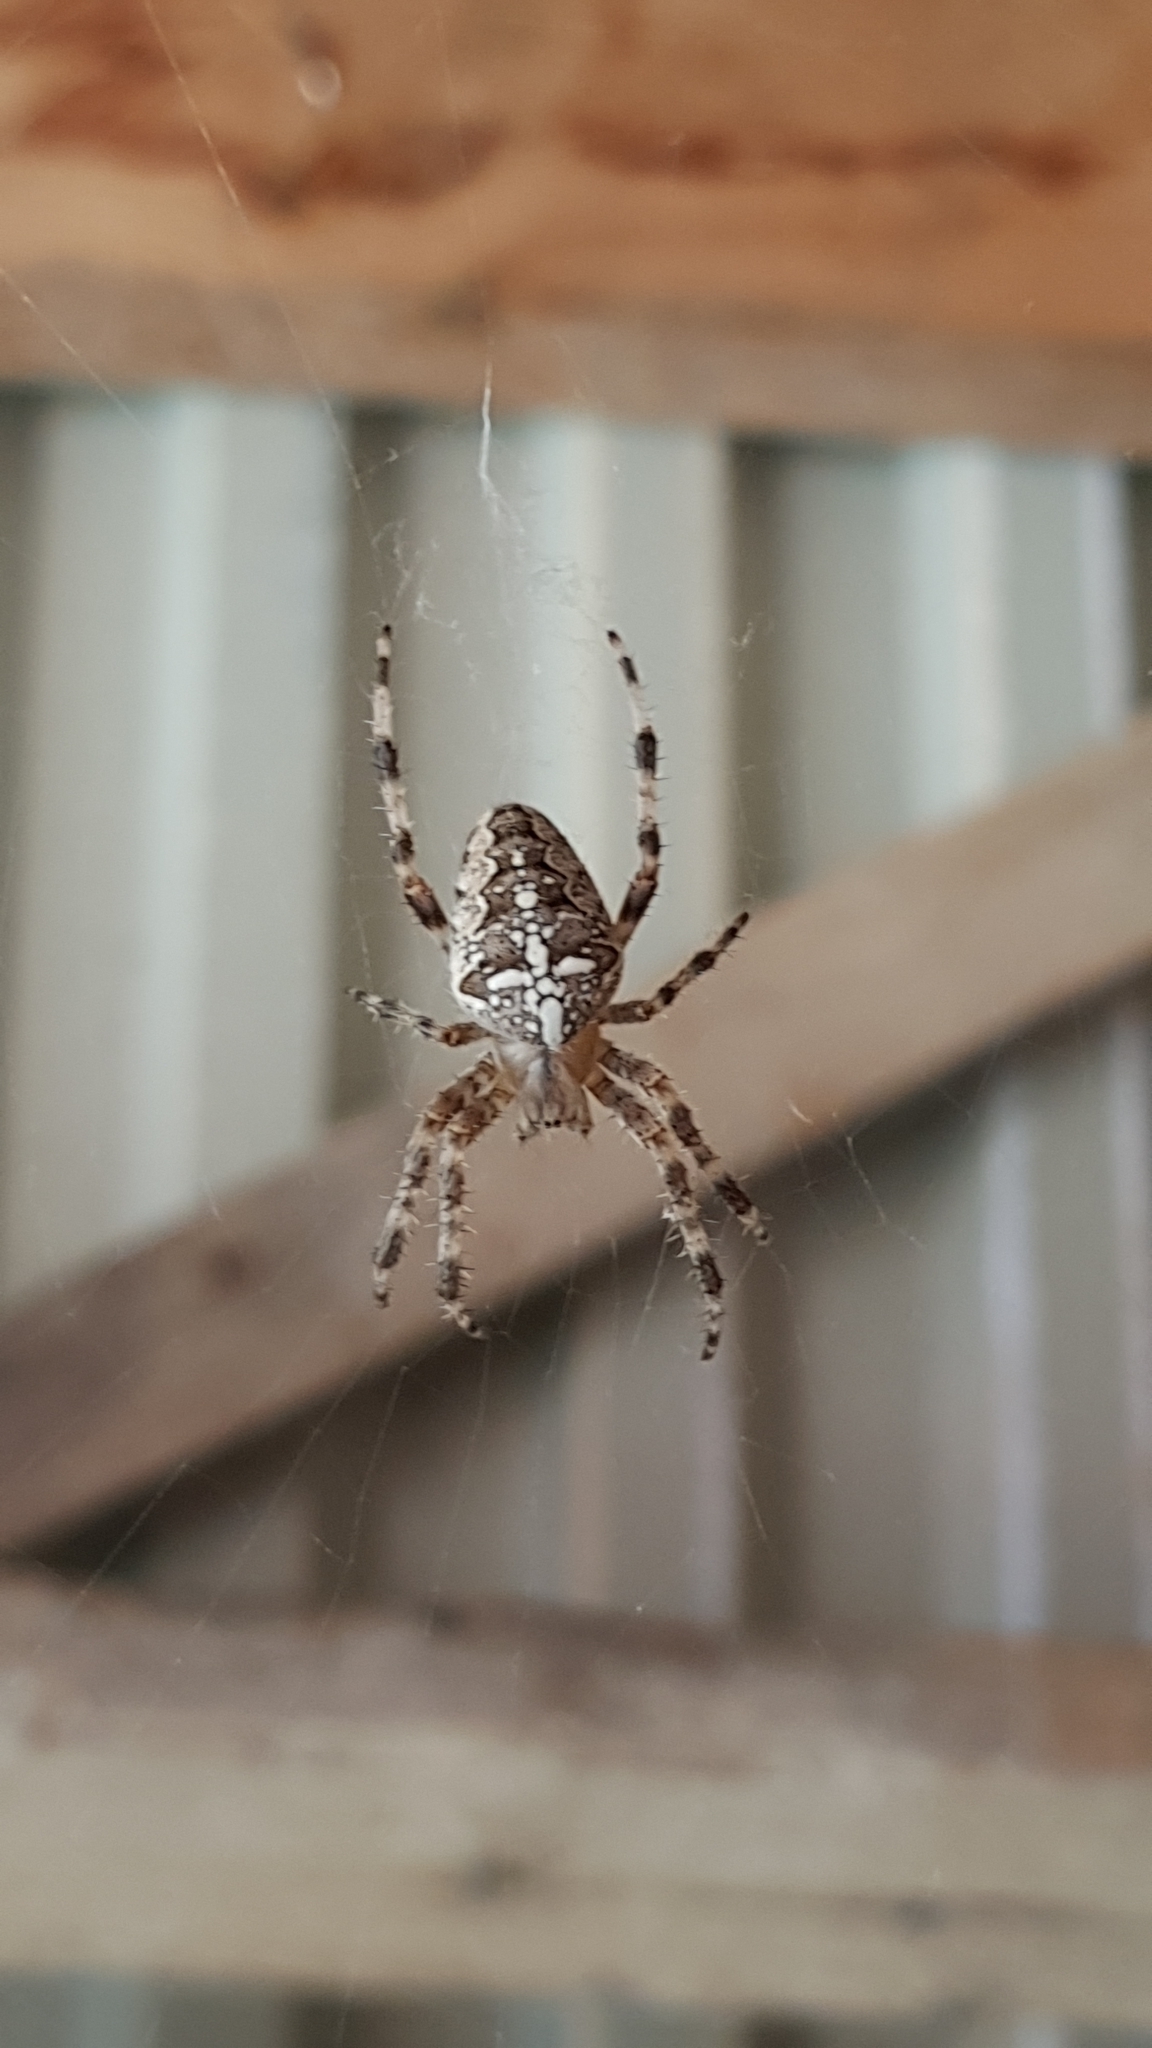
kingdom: Animalia
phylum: Arthropoda
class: Arachnida
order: Araneae
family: Araneidae
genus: Araneus
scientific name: Araneus diadematus
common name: Cross orbweaver
